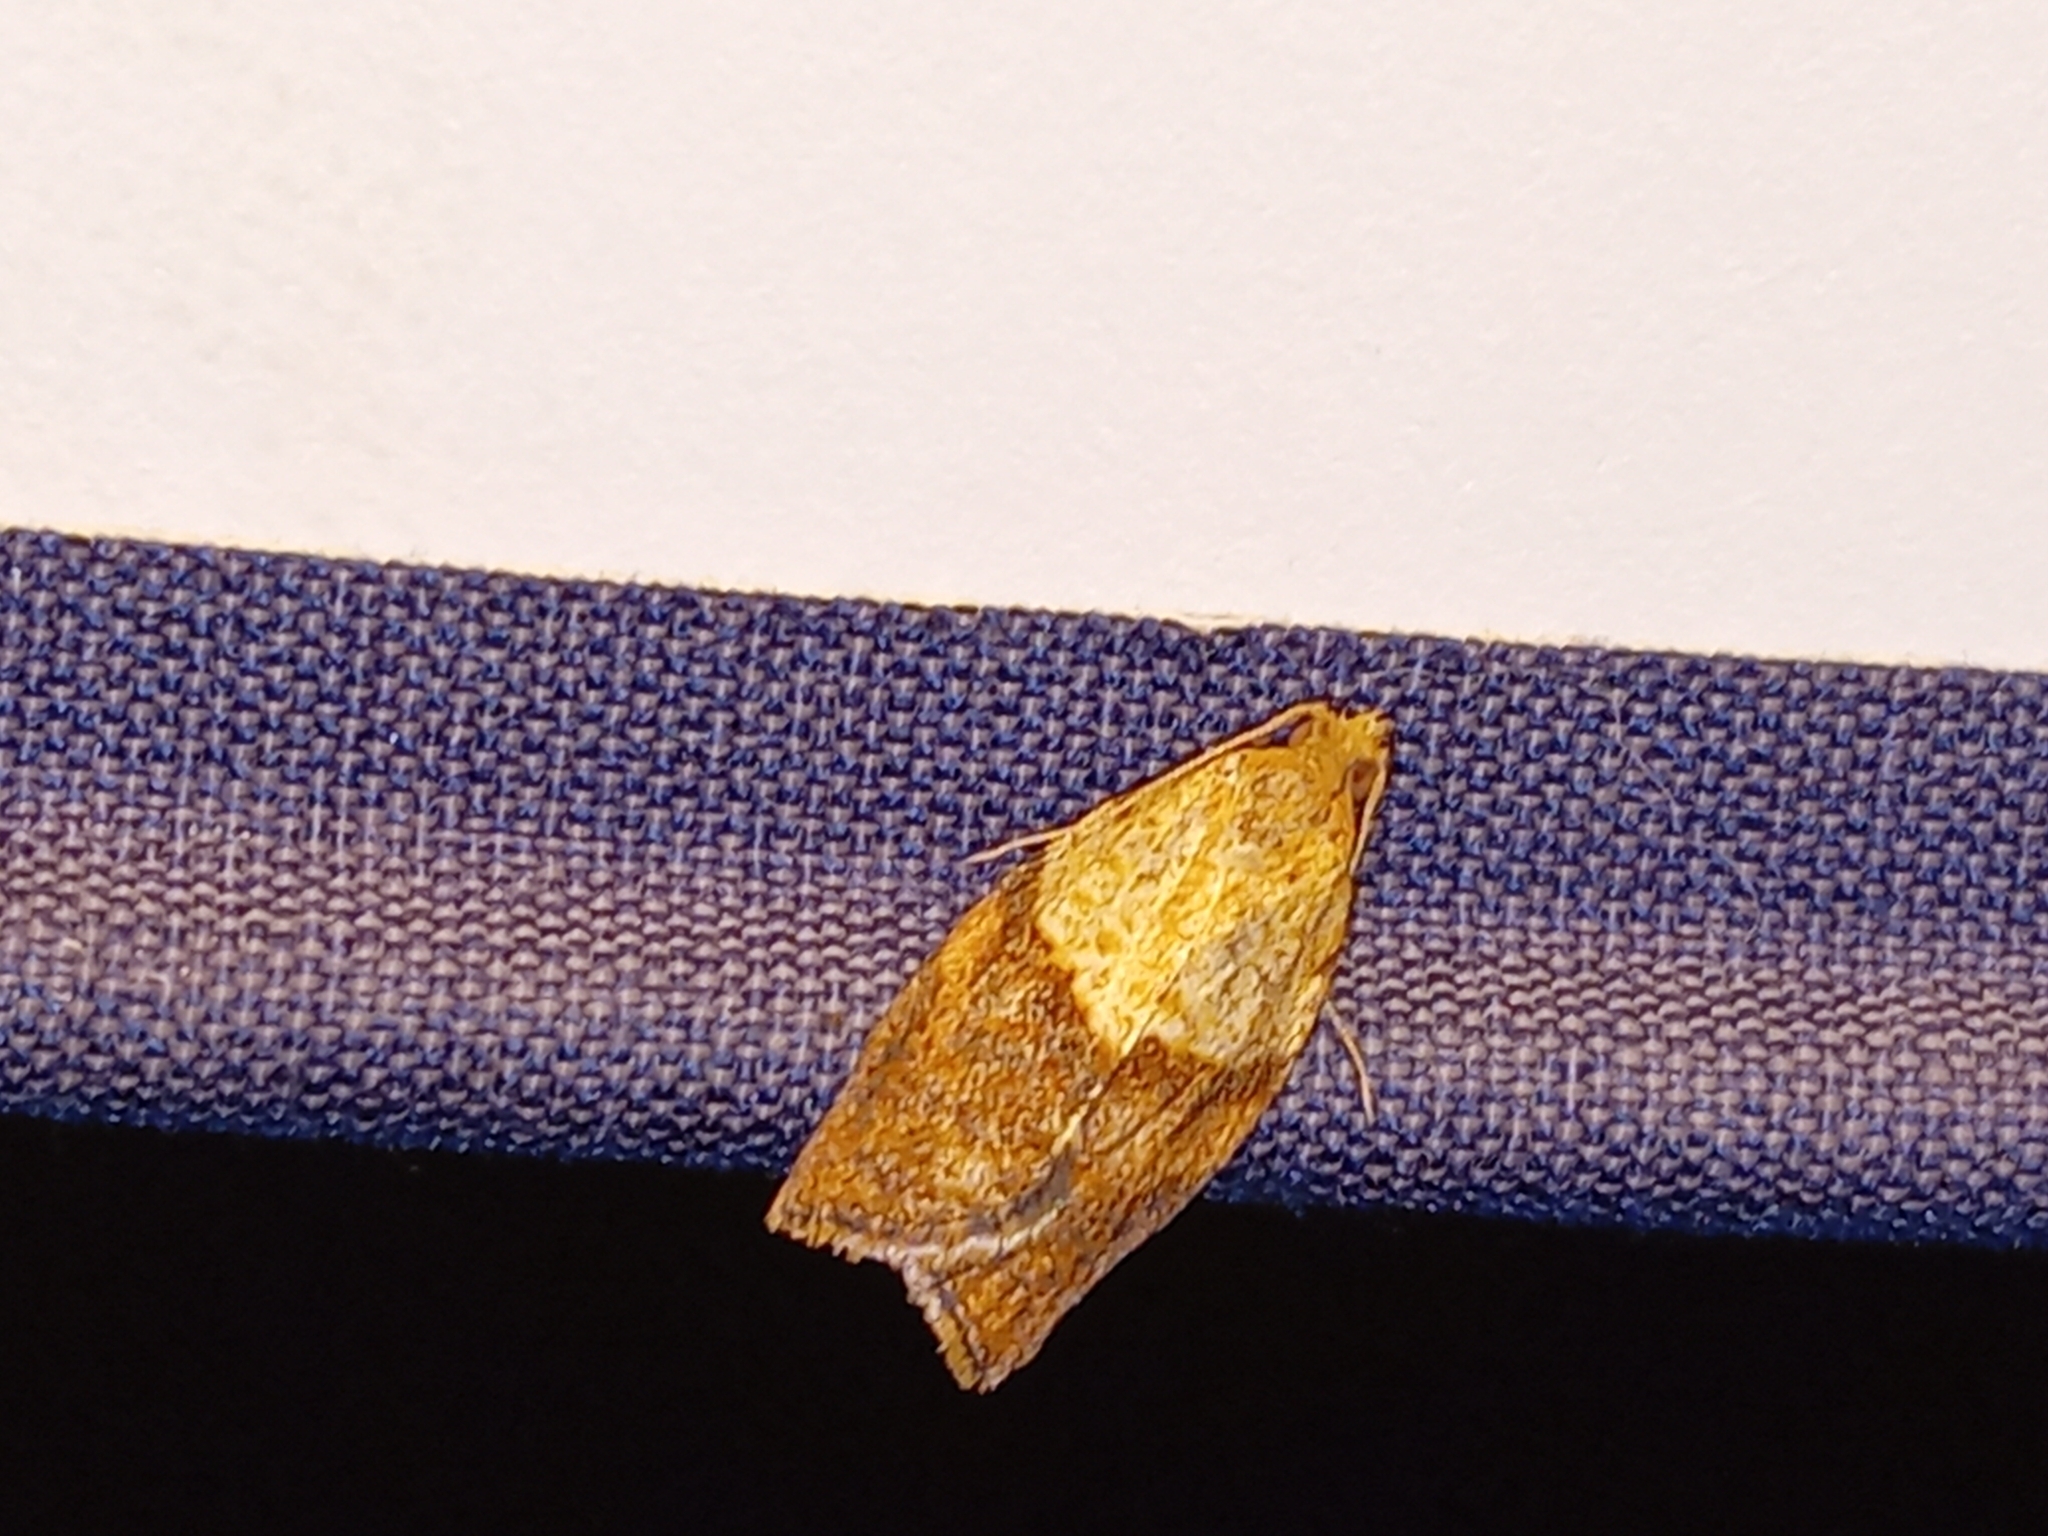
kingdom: Animalia
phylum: Arthropoda
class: Insecta
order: Lepidoptera
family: Tortricidae
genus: Epiphyas
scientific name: Epiphyas postvittana
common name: Light brown apple moth
